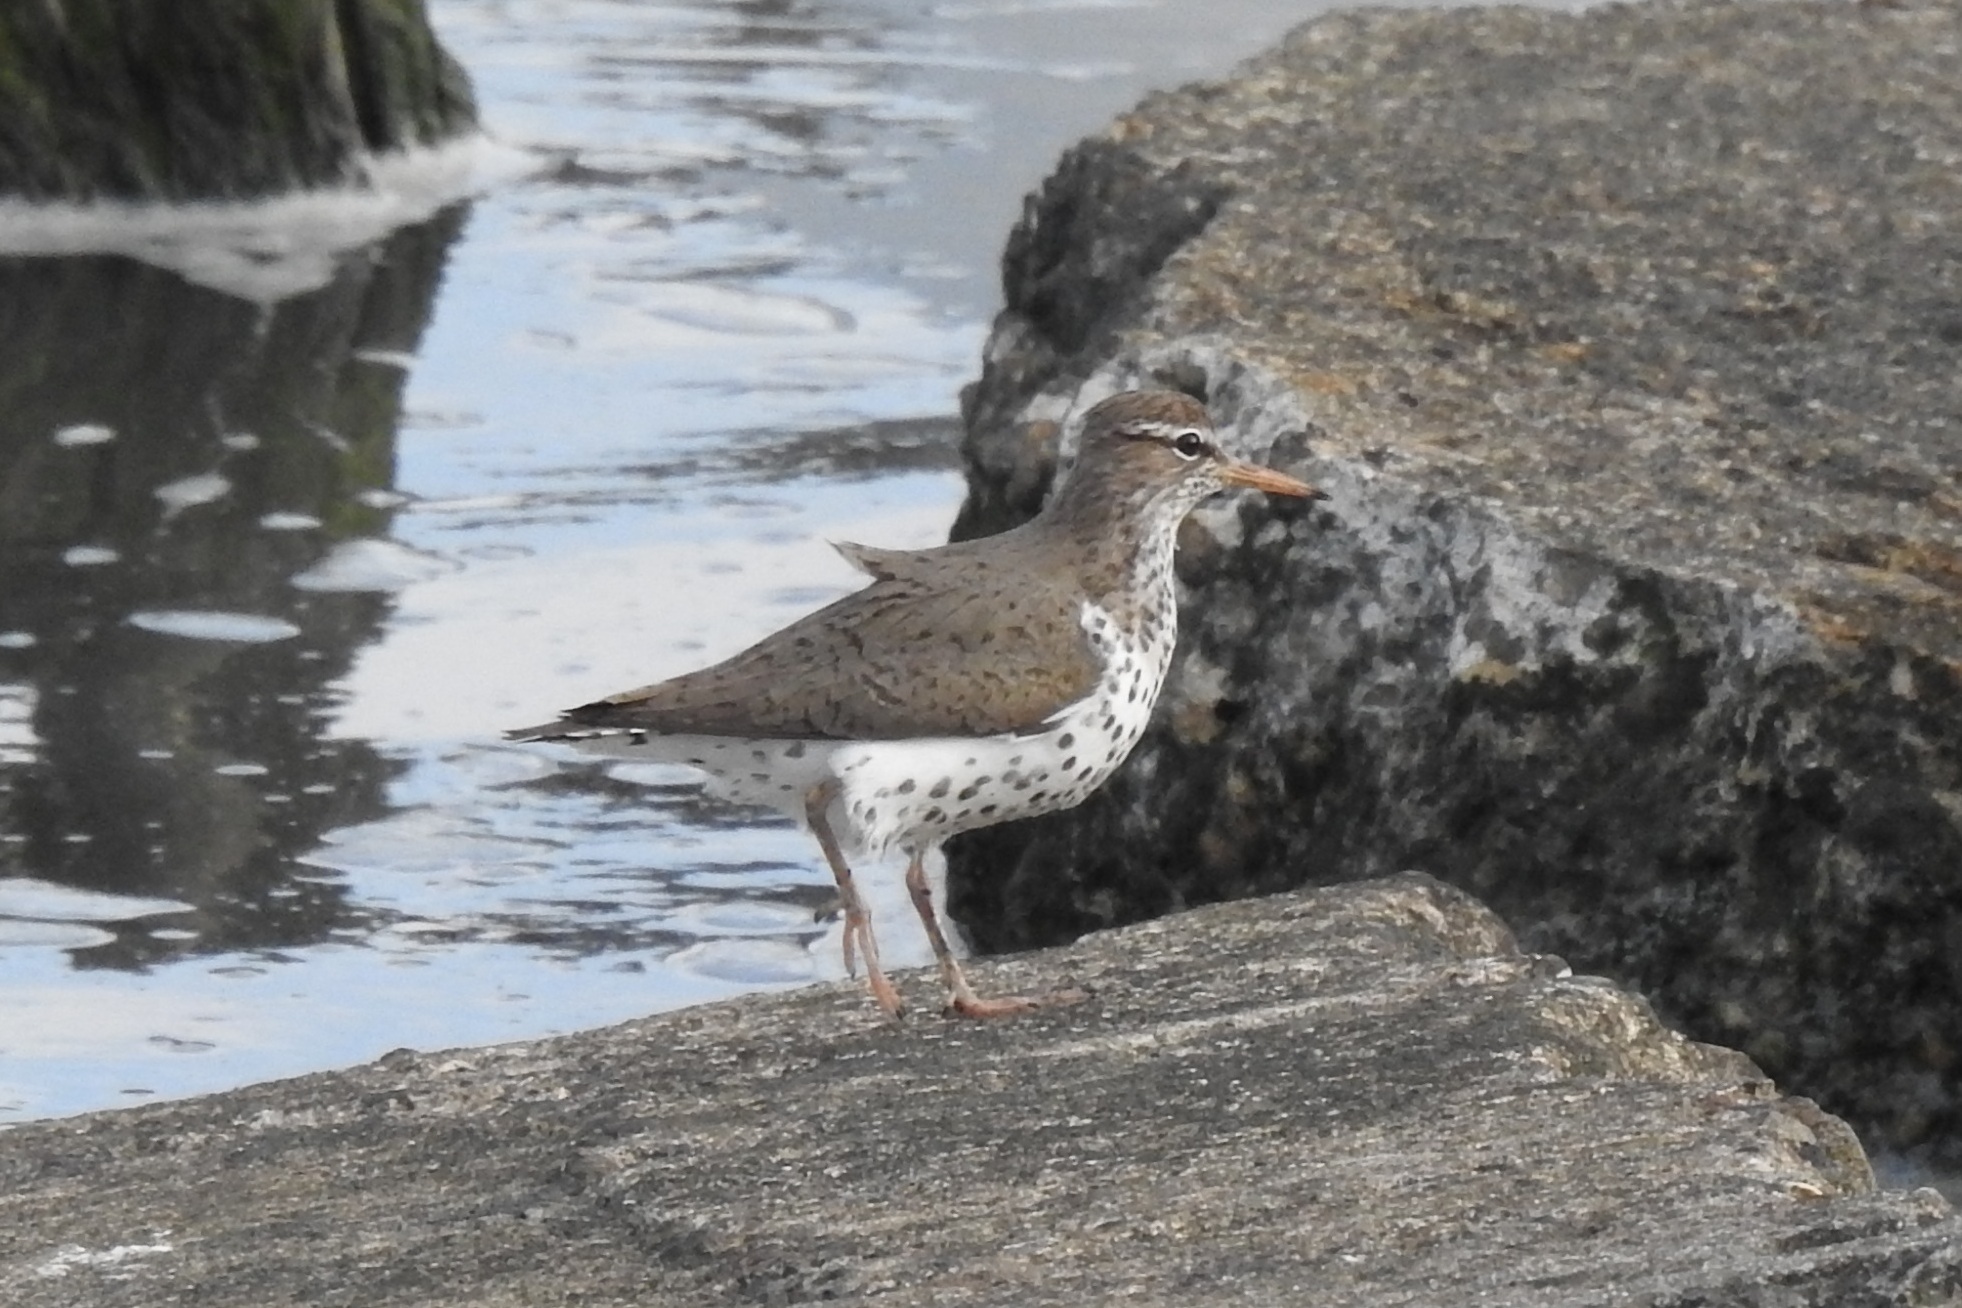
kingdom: Animalia
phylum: Chordata
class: Aves
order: Charadriiformes
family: Scolopacidae
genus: Actitis
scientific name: Actitis macularius
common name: Spotted sandpiper
